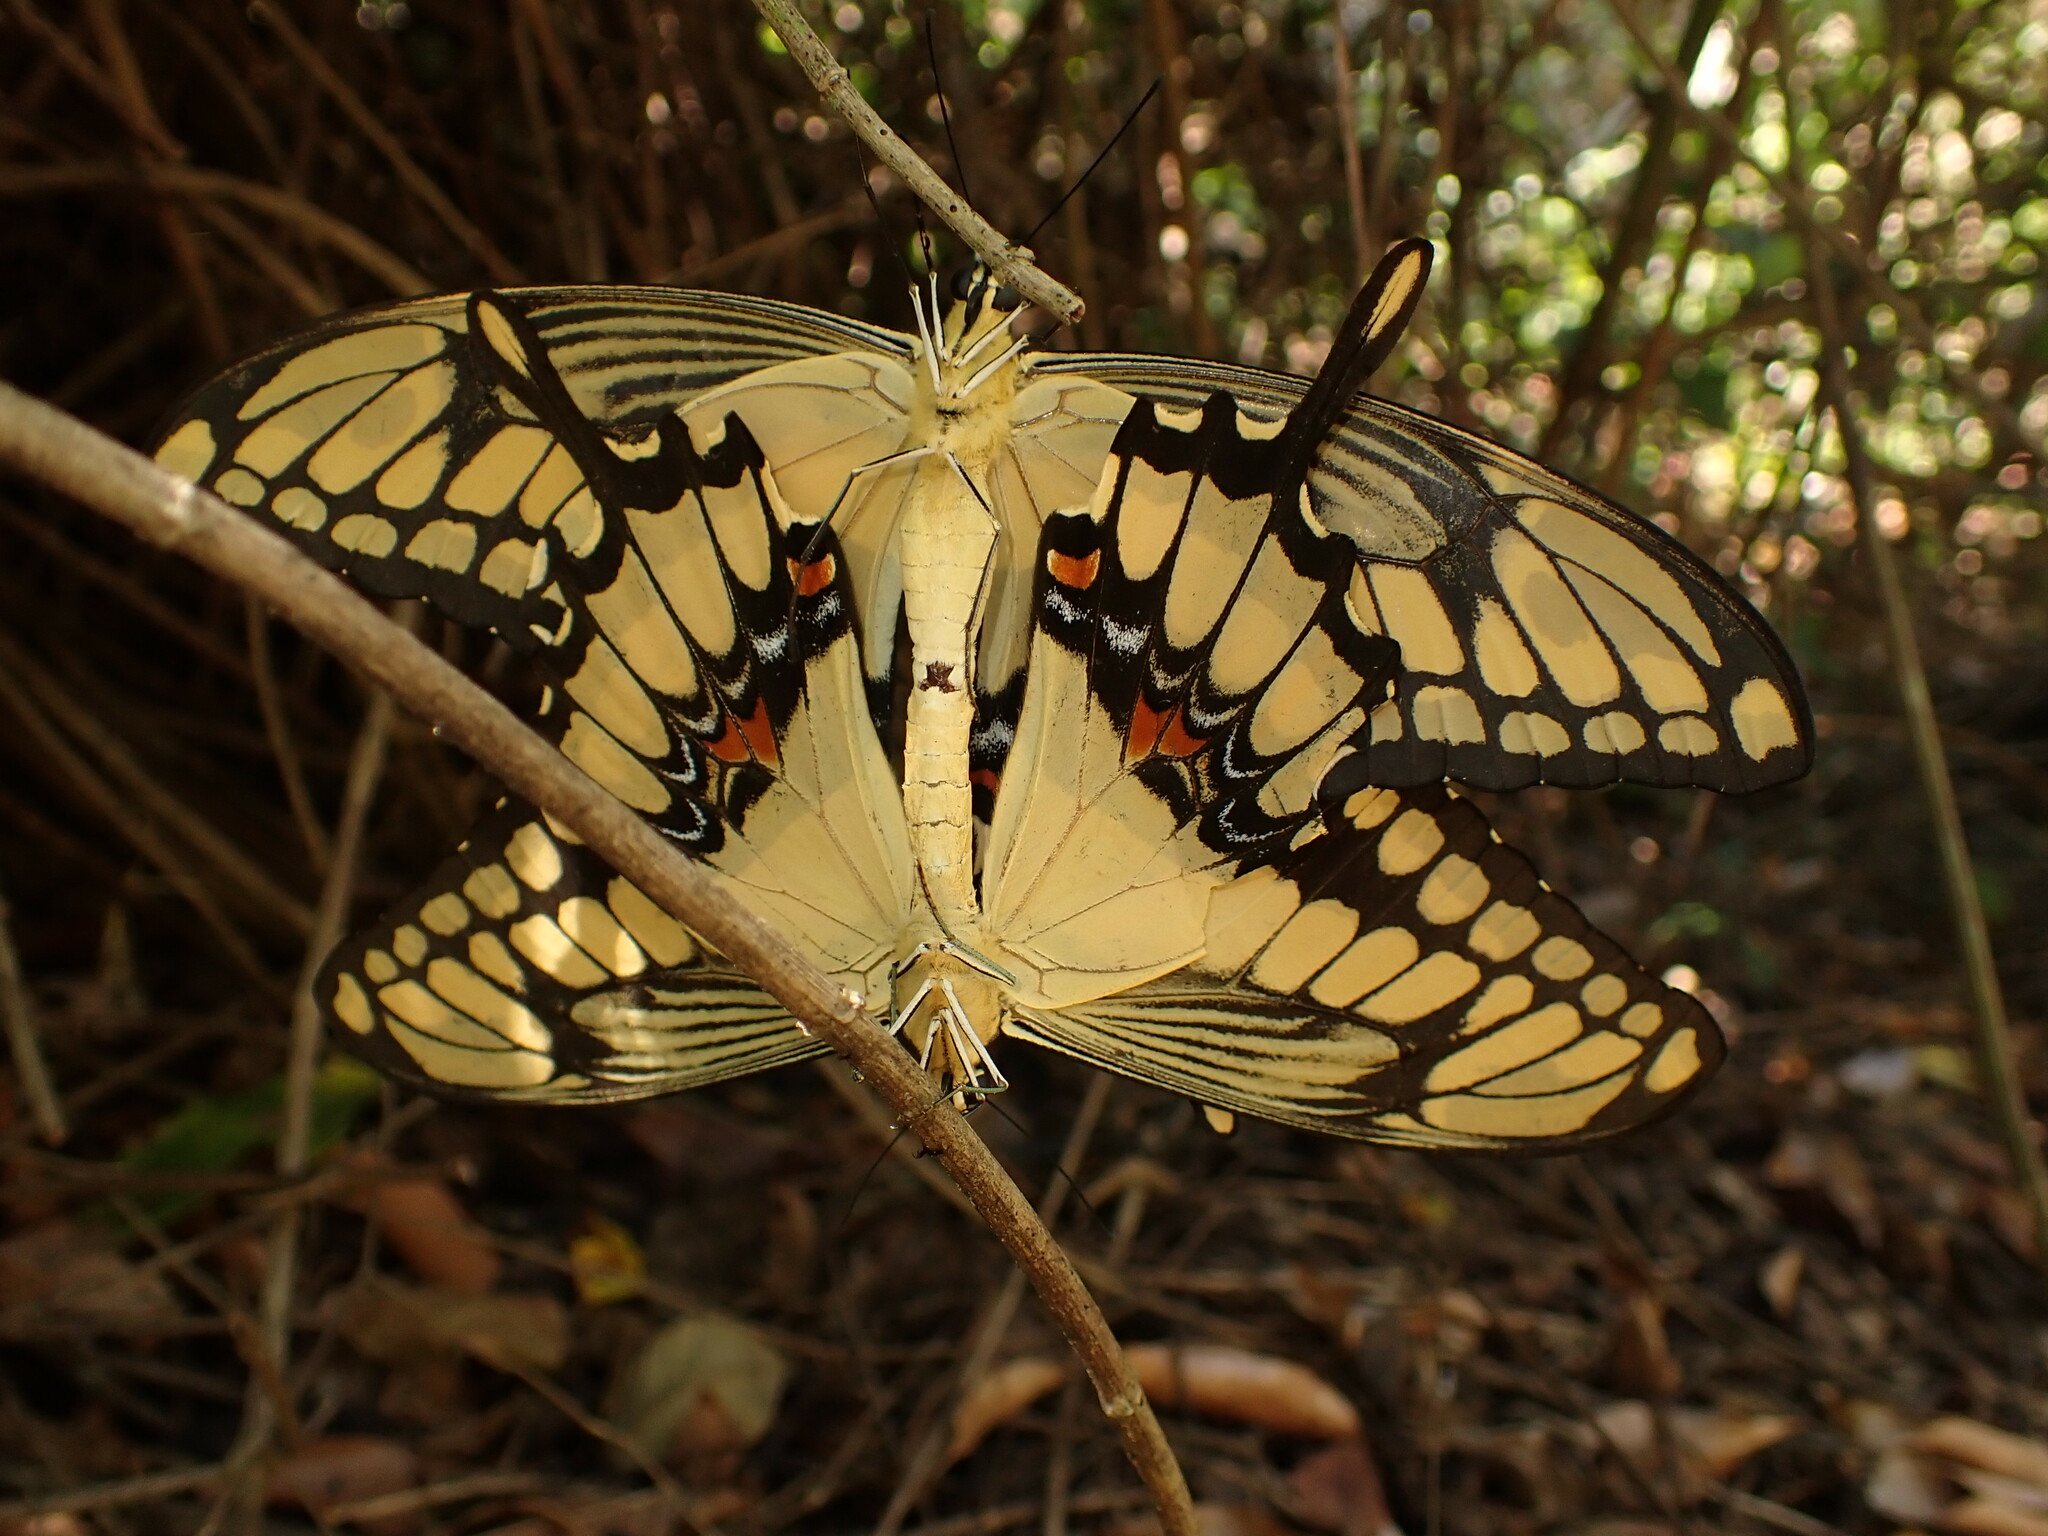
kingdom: Animalia
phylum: Arthropoda
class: Insecta
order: Lepidoptera
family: Papilionidae
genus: Papilio
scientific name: Papilio thoas
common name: King swallowtail
